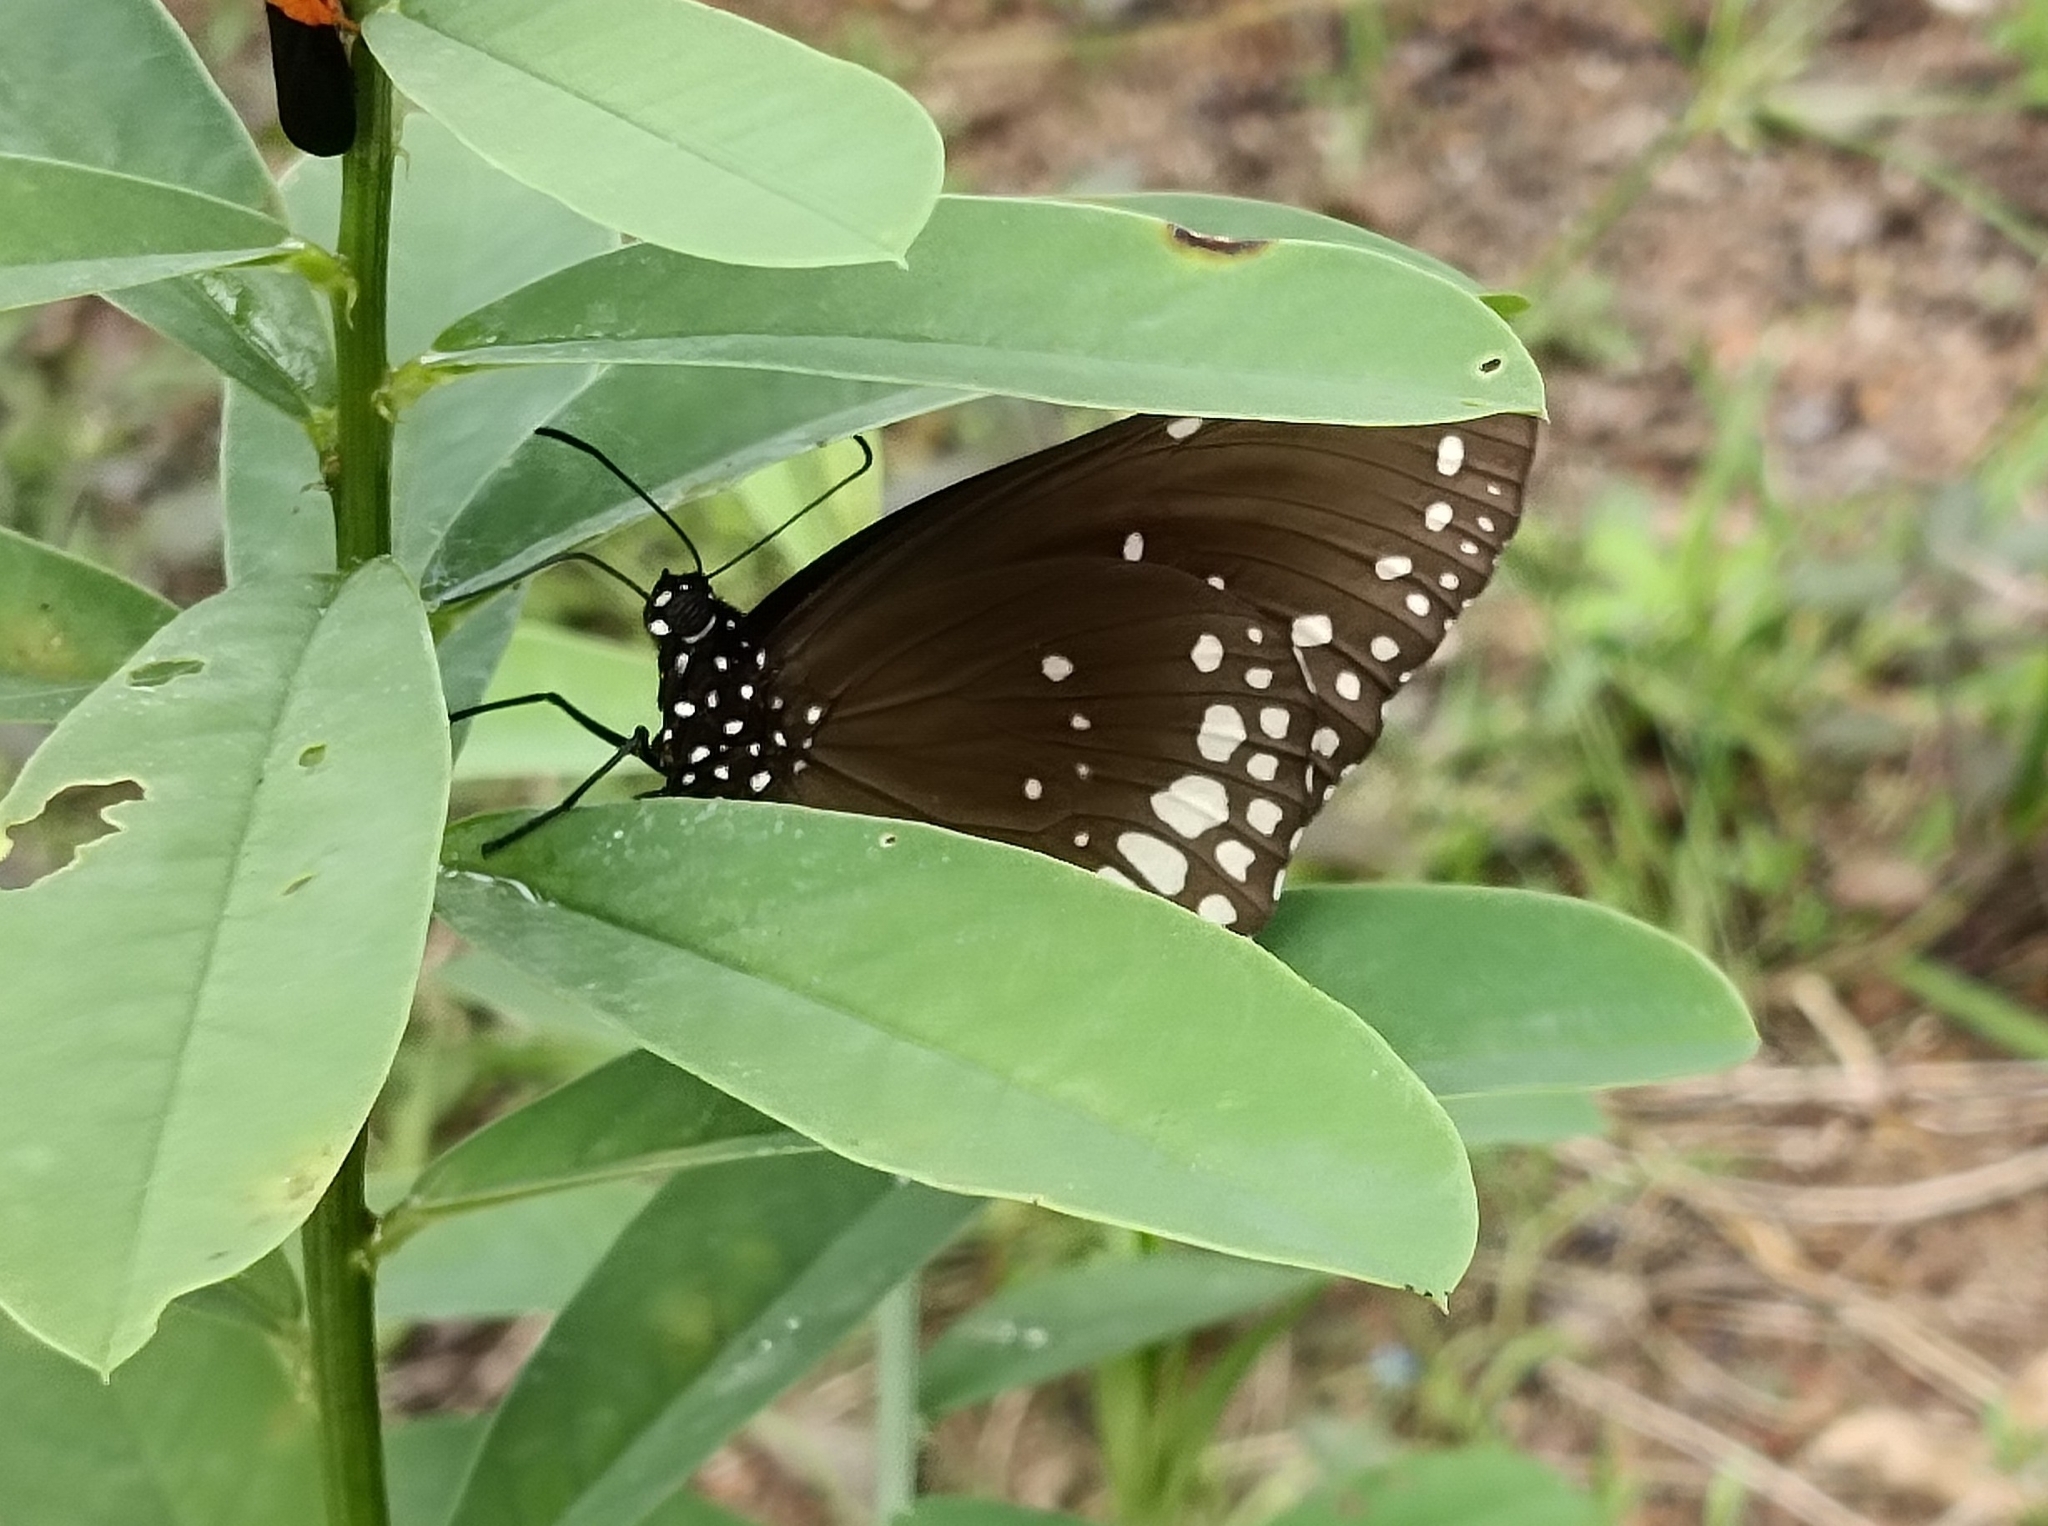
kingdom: Animalia
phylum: Arthropoda
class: Insecta
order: Lepidoptera
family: Nymphalidae
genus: Euploea
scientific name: Euploea core
